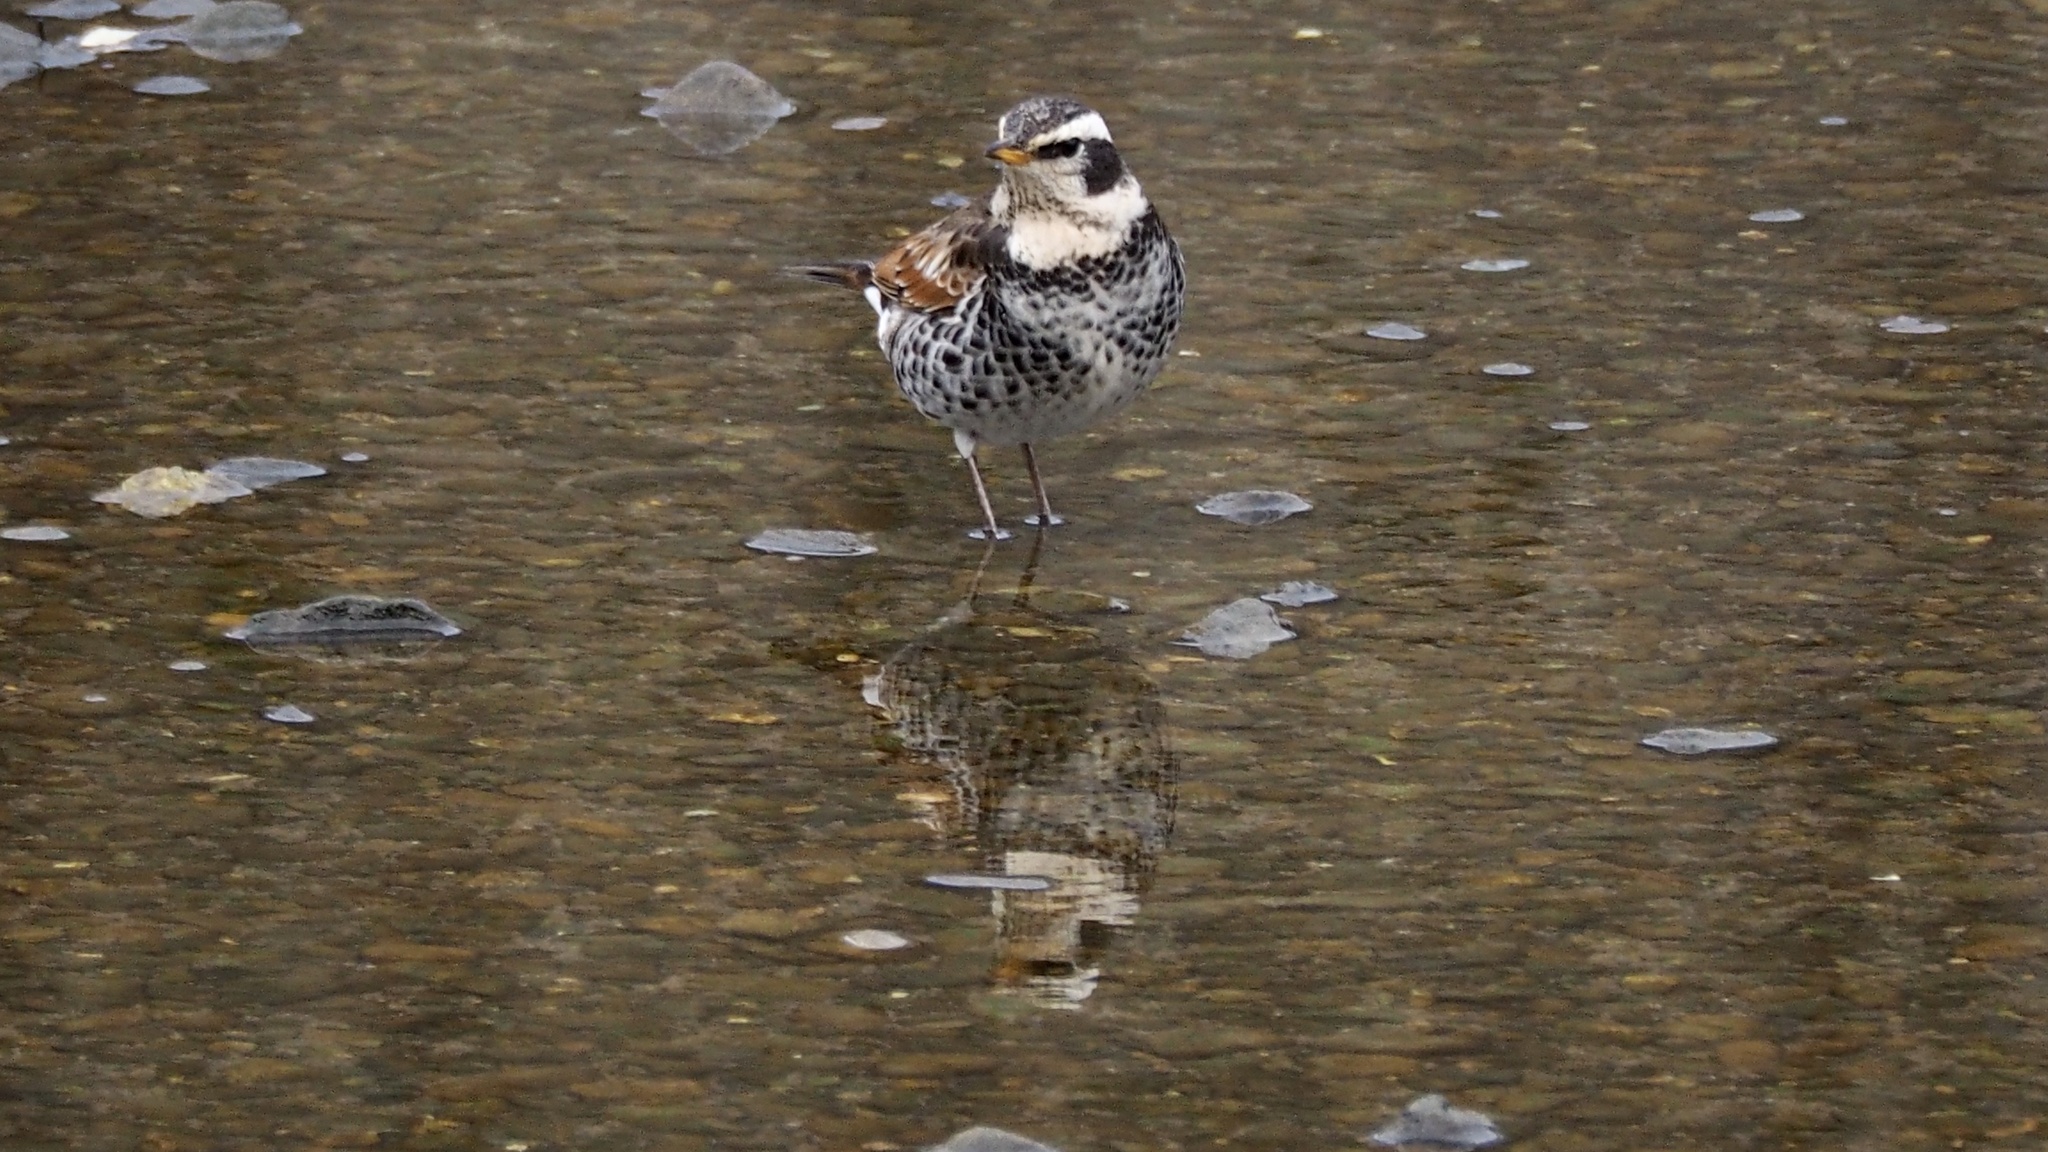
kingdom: Animalia
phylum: Chordata
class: Aves
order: Passeriformes
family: Turdidae
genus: Turdus
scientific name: Turdus eunomus
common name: Dusky thrush
